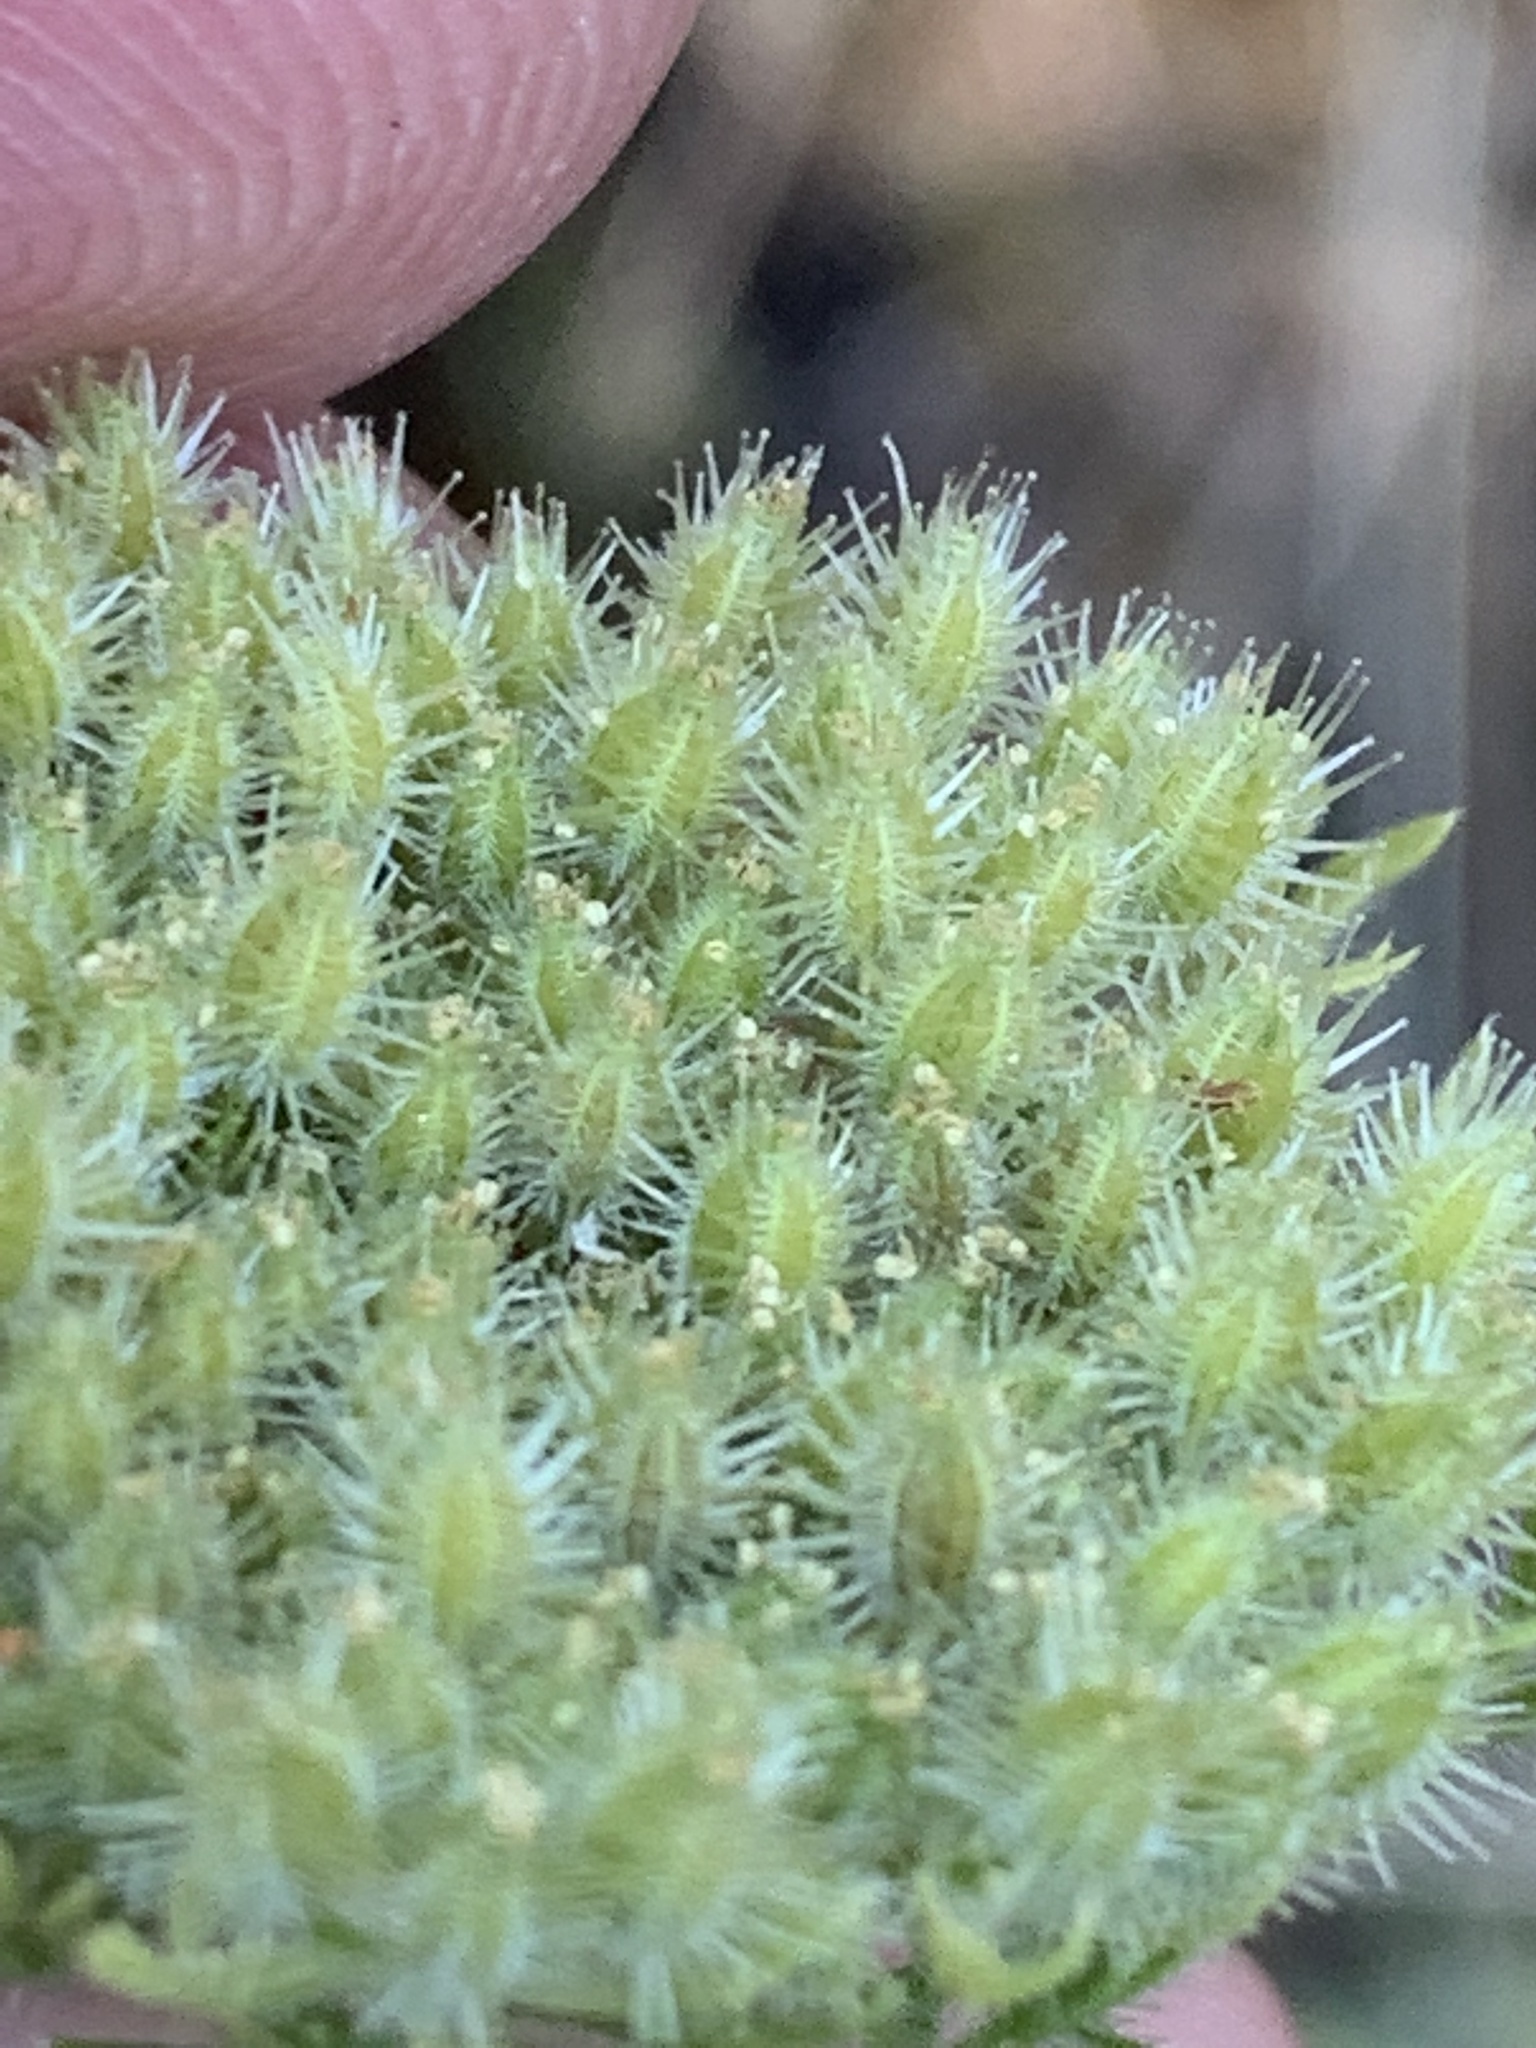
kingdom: Plantae
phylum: Tracheophyta
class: Magnoliopsida
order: Apiales
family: Apiaceae
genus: Daucus
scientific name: Daucus pusillus
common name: Southwest wild carrot
